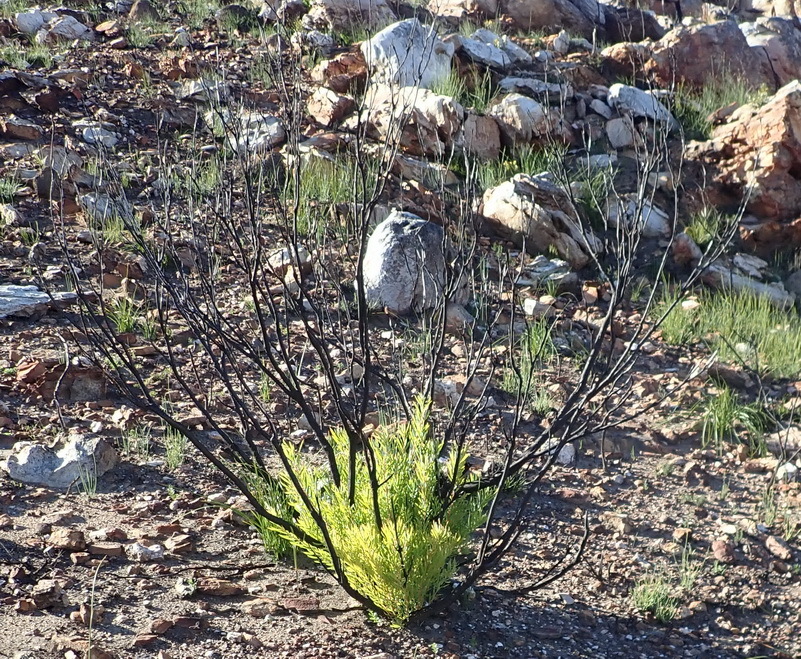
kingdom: Plantae
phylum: Tracheophyta
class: Magnoliopsida
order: Proteales
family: Proteaceae
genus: Leucadendron
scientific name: Leucadendron salignum
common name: Common sunshine conebush
